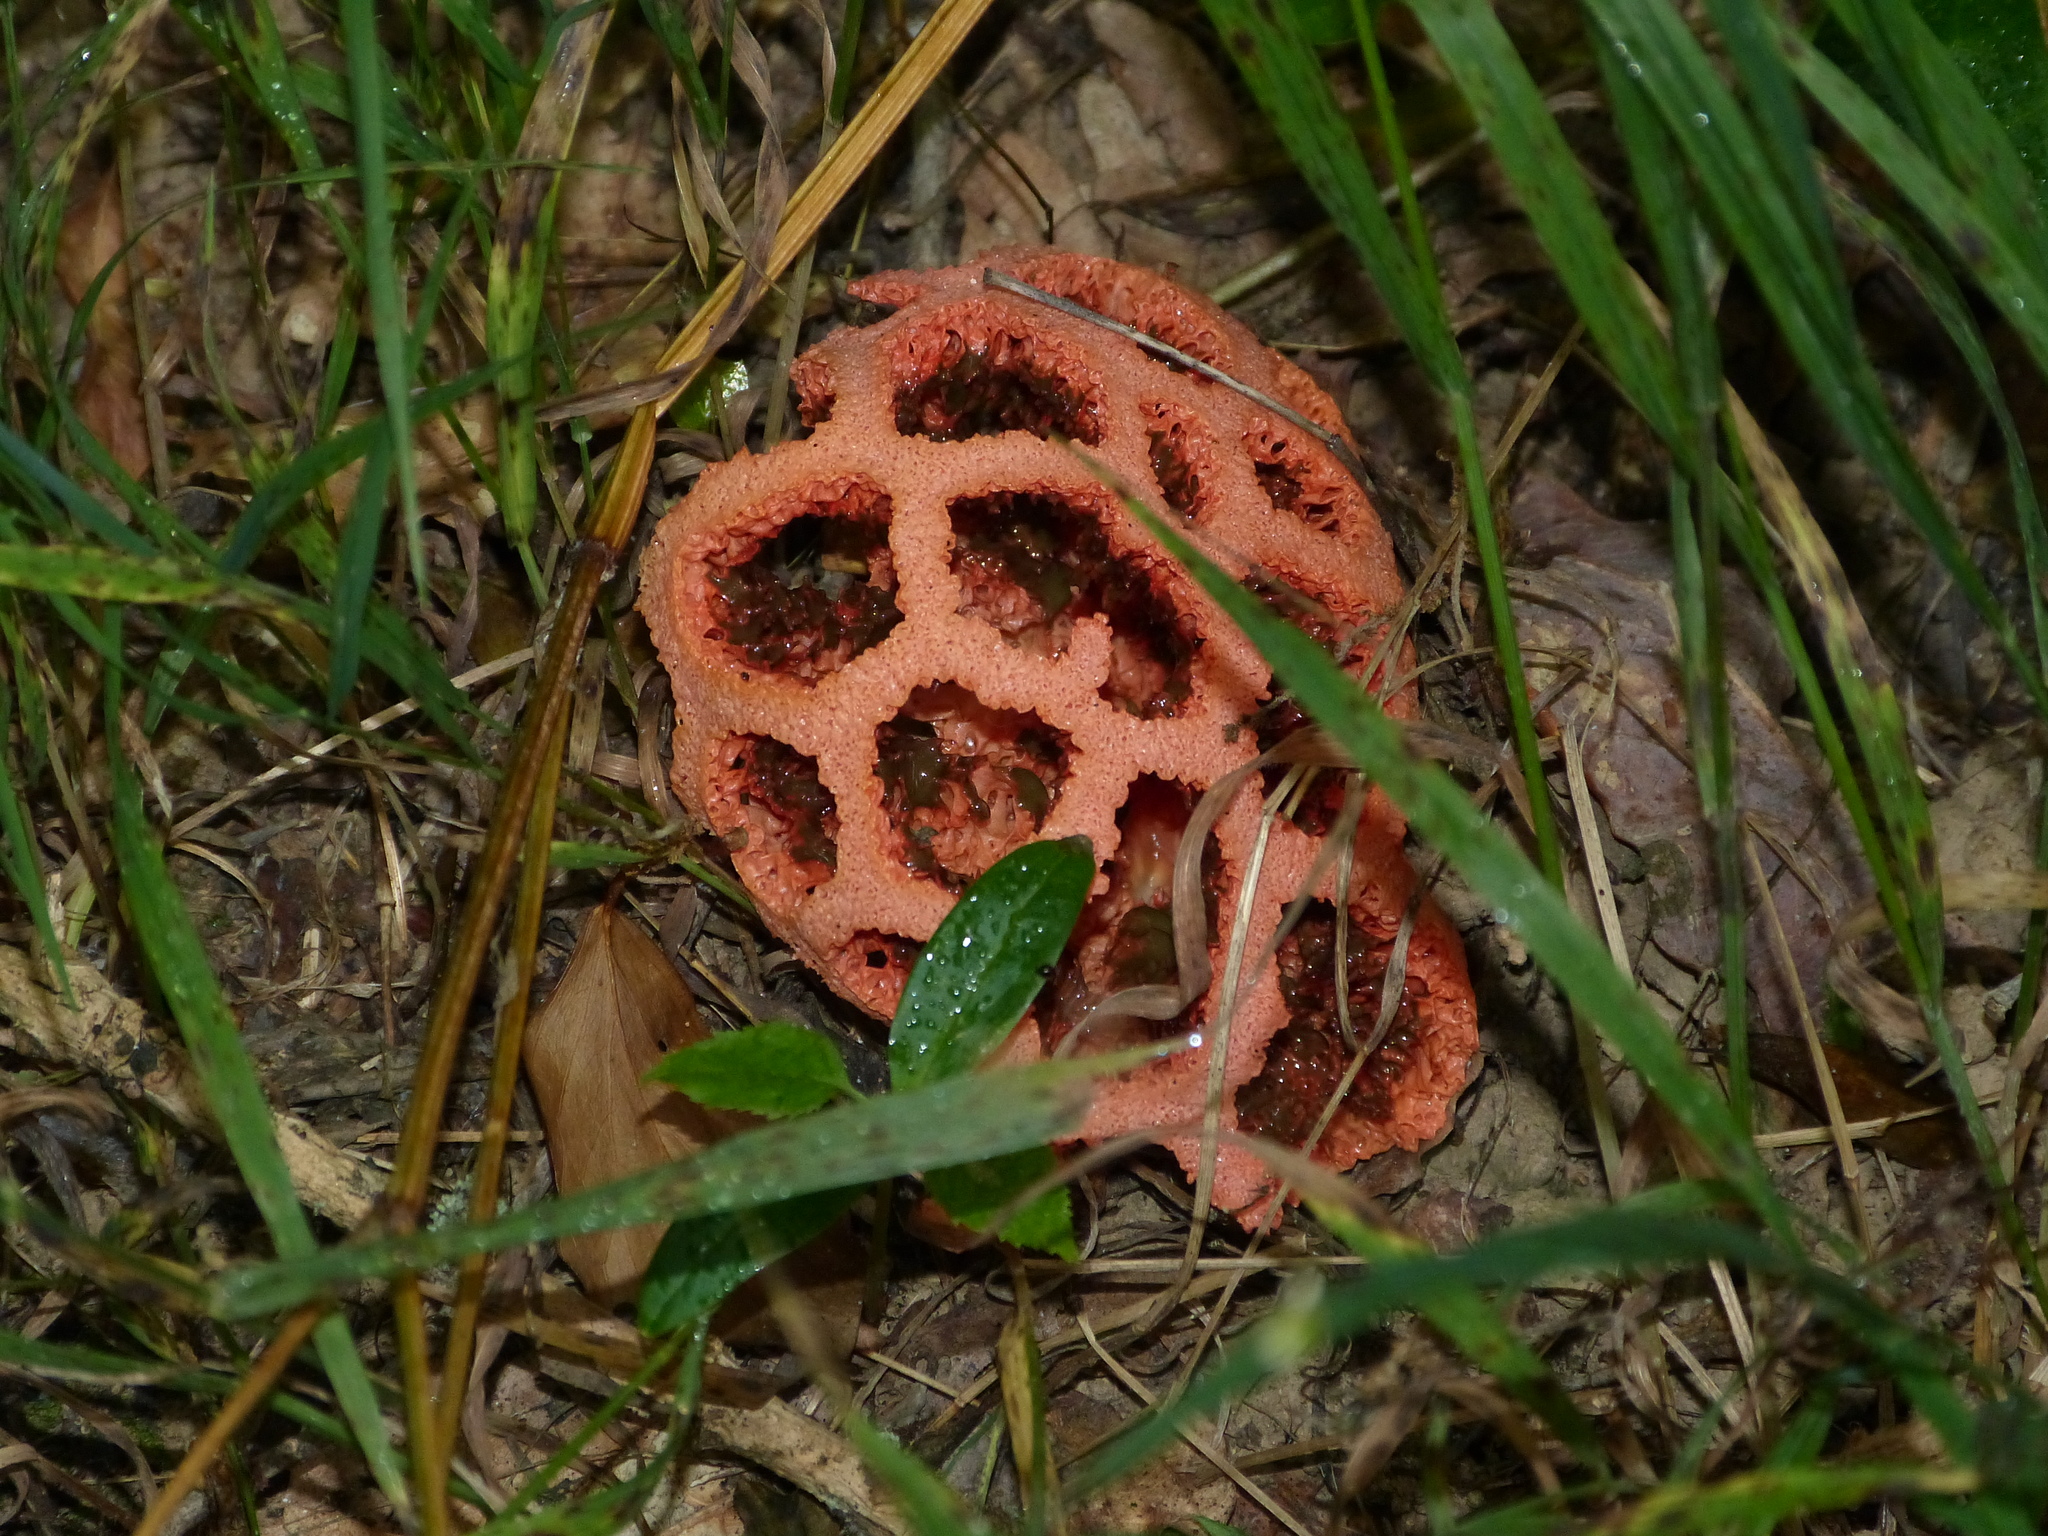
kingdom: Fungi
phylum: Basidiomycota
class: Agaricomycetes
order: Phallales
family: Phallaceae
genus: Clathrus
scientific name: Clathrus ruber
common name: Red cage
